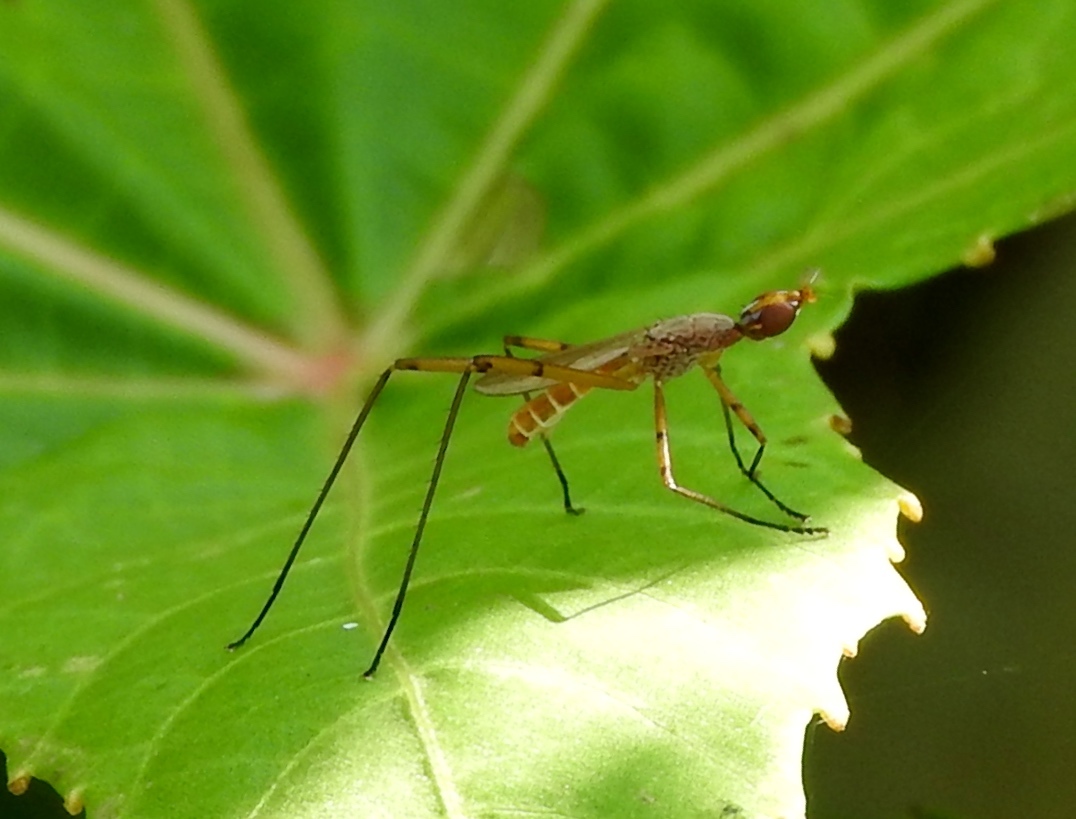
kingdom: Animalia
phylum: Arthropoda
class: Insecta
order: Diptera
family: Micropezidae
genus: Micropeza
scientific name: Micropeza stigmatica
